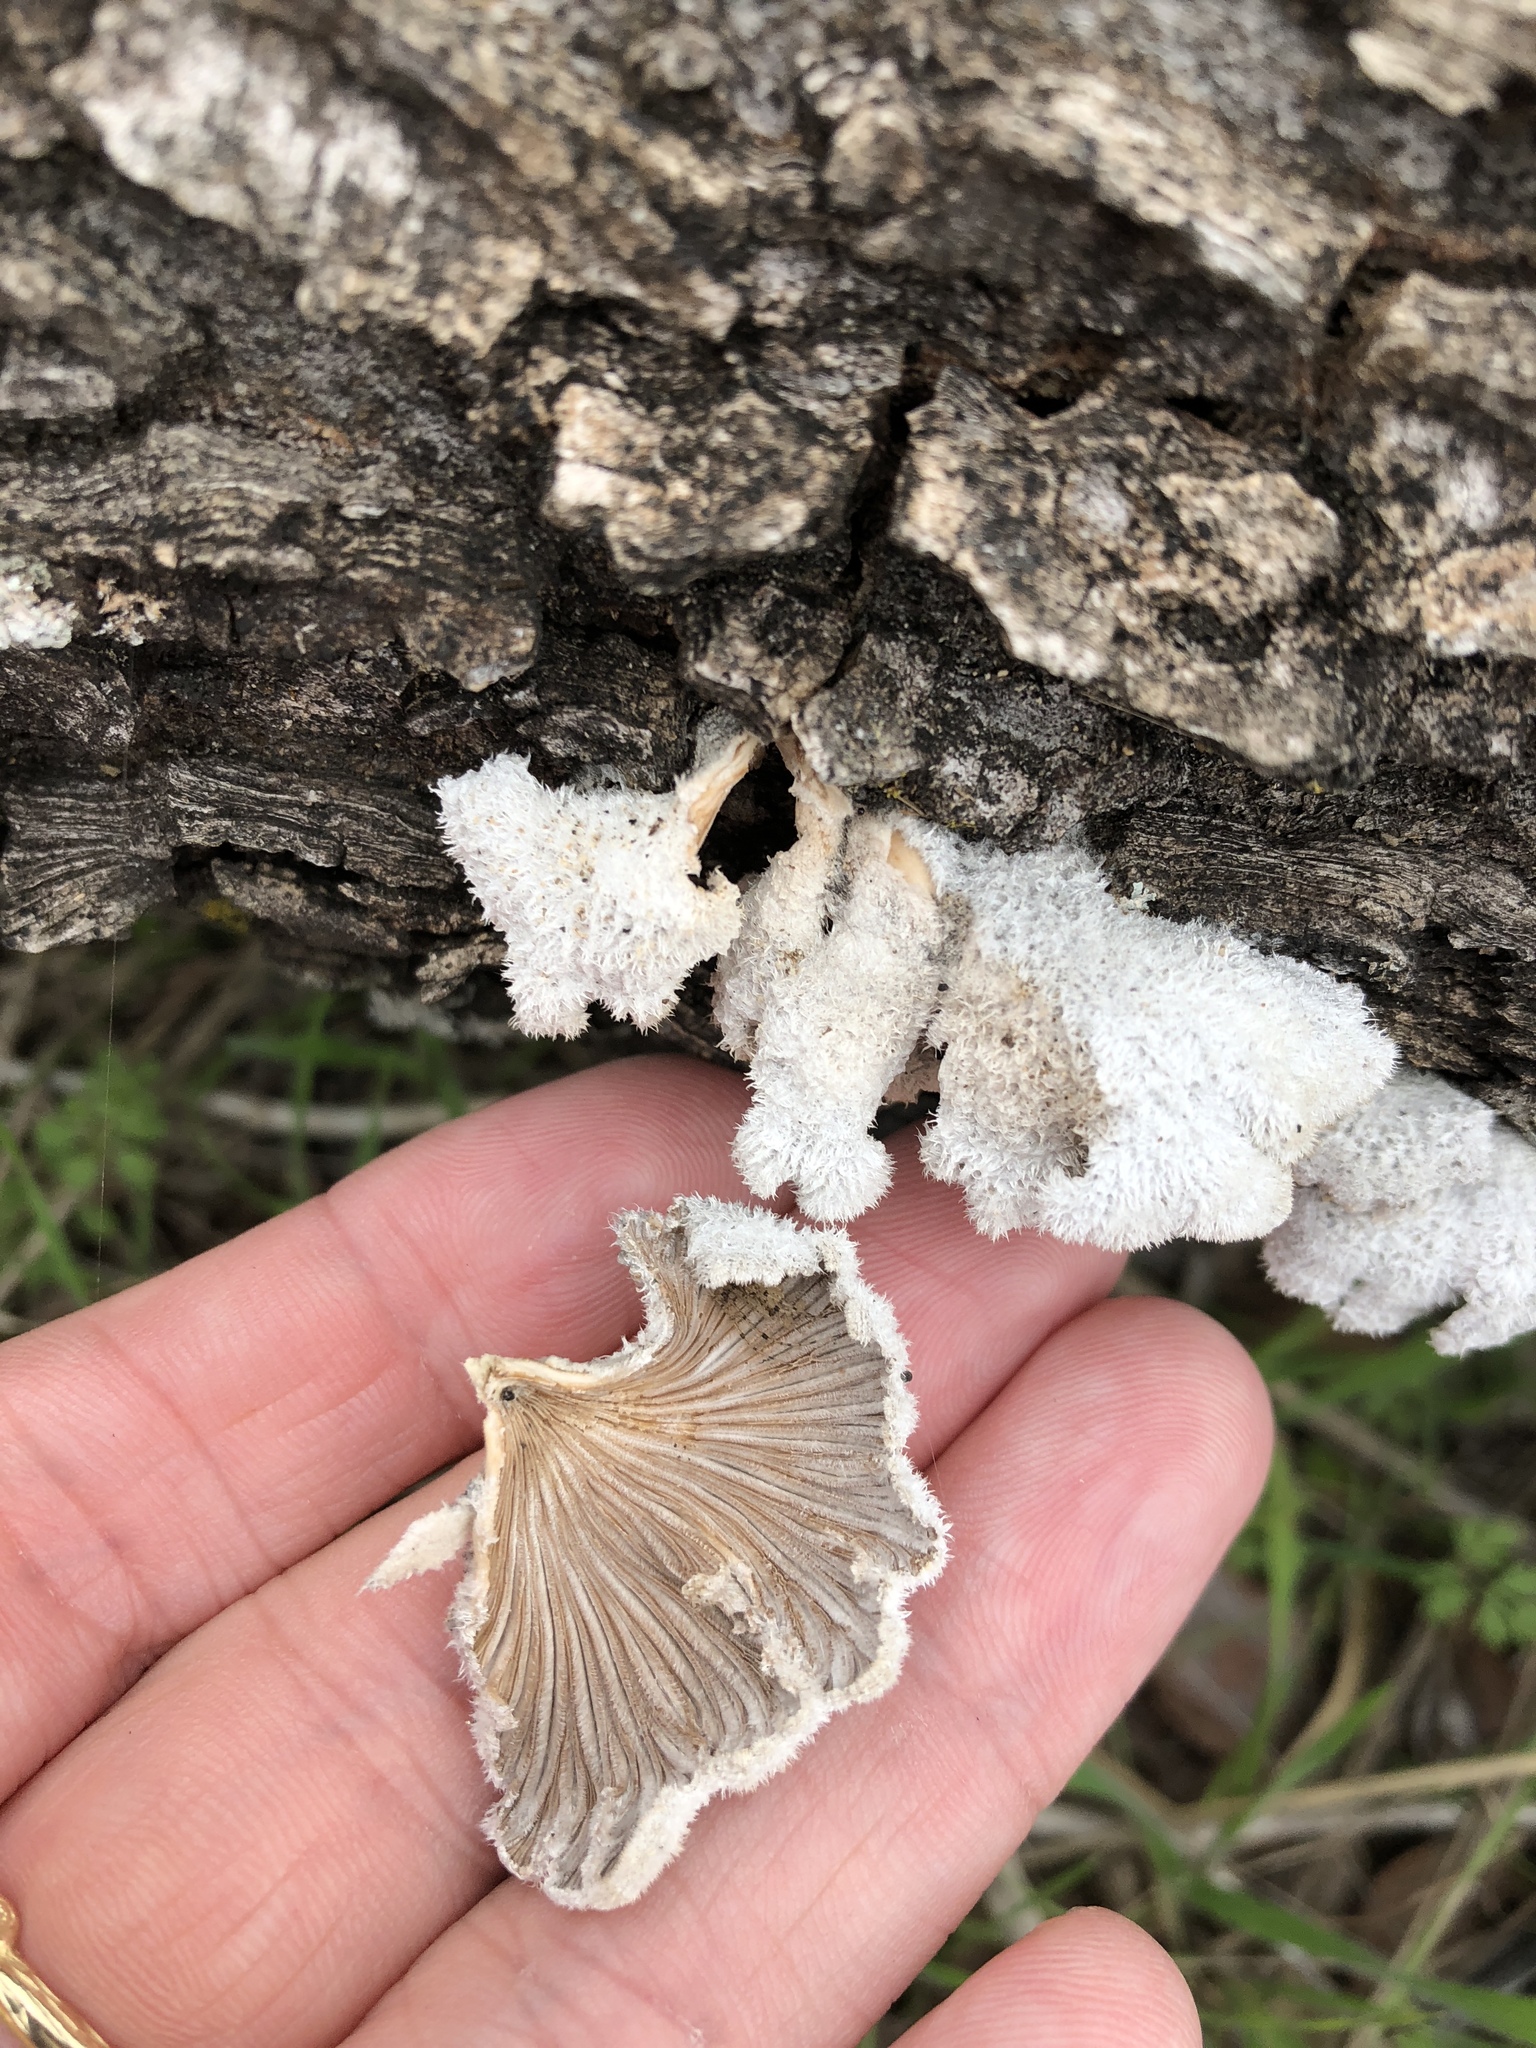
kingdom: Fungi
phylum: Basidiomycota
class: Agaricomycetes
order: Agaricales
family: Schizophyllaceae
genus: Schizophyllum
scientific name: Schizophyllum commune
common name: Common porecrust
